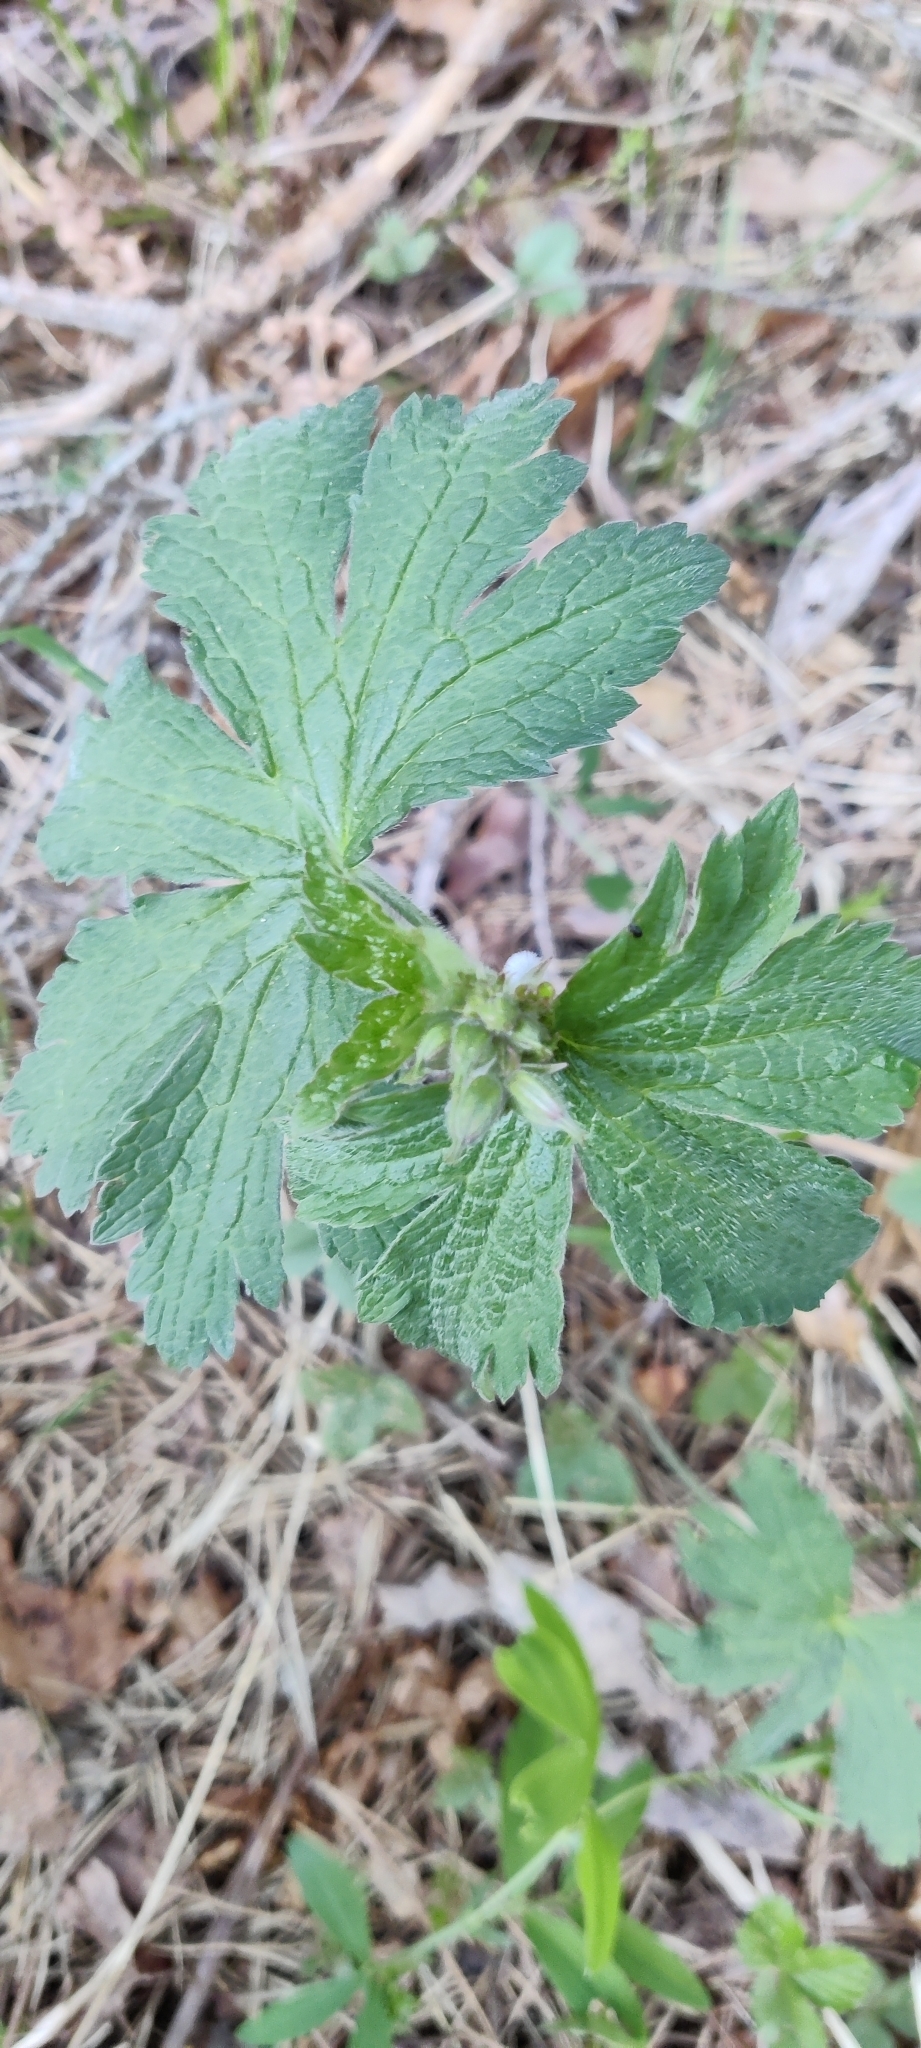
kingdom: Plantae
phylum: Tracheophyta
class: Magnoliopsida
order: Geraniales
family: Geraniaceae
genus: Geranium
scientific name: Geranium sylvaticum
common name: Wood crane's-bill
